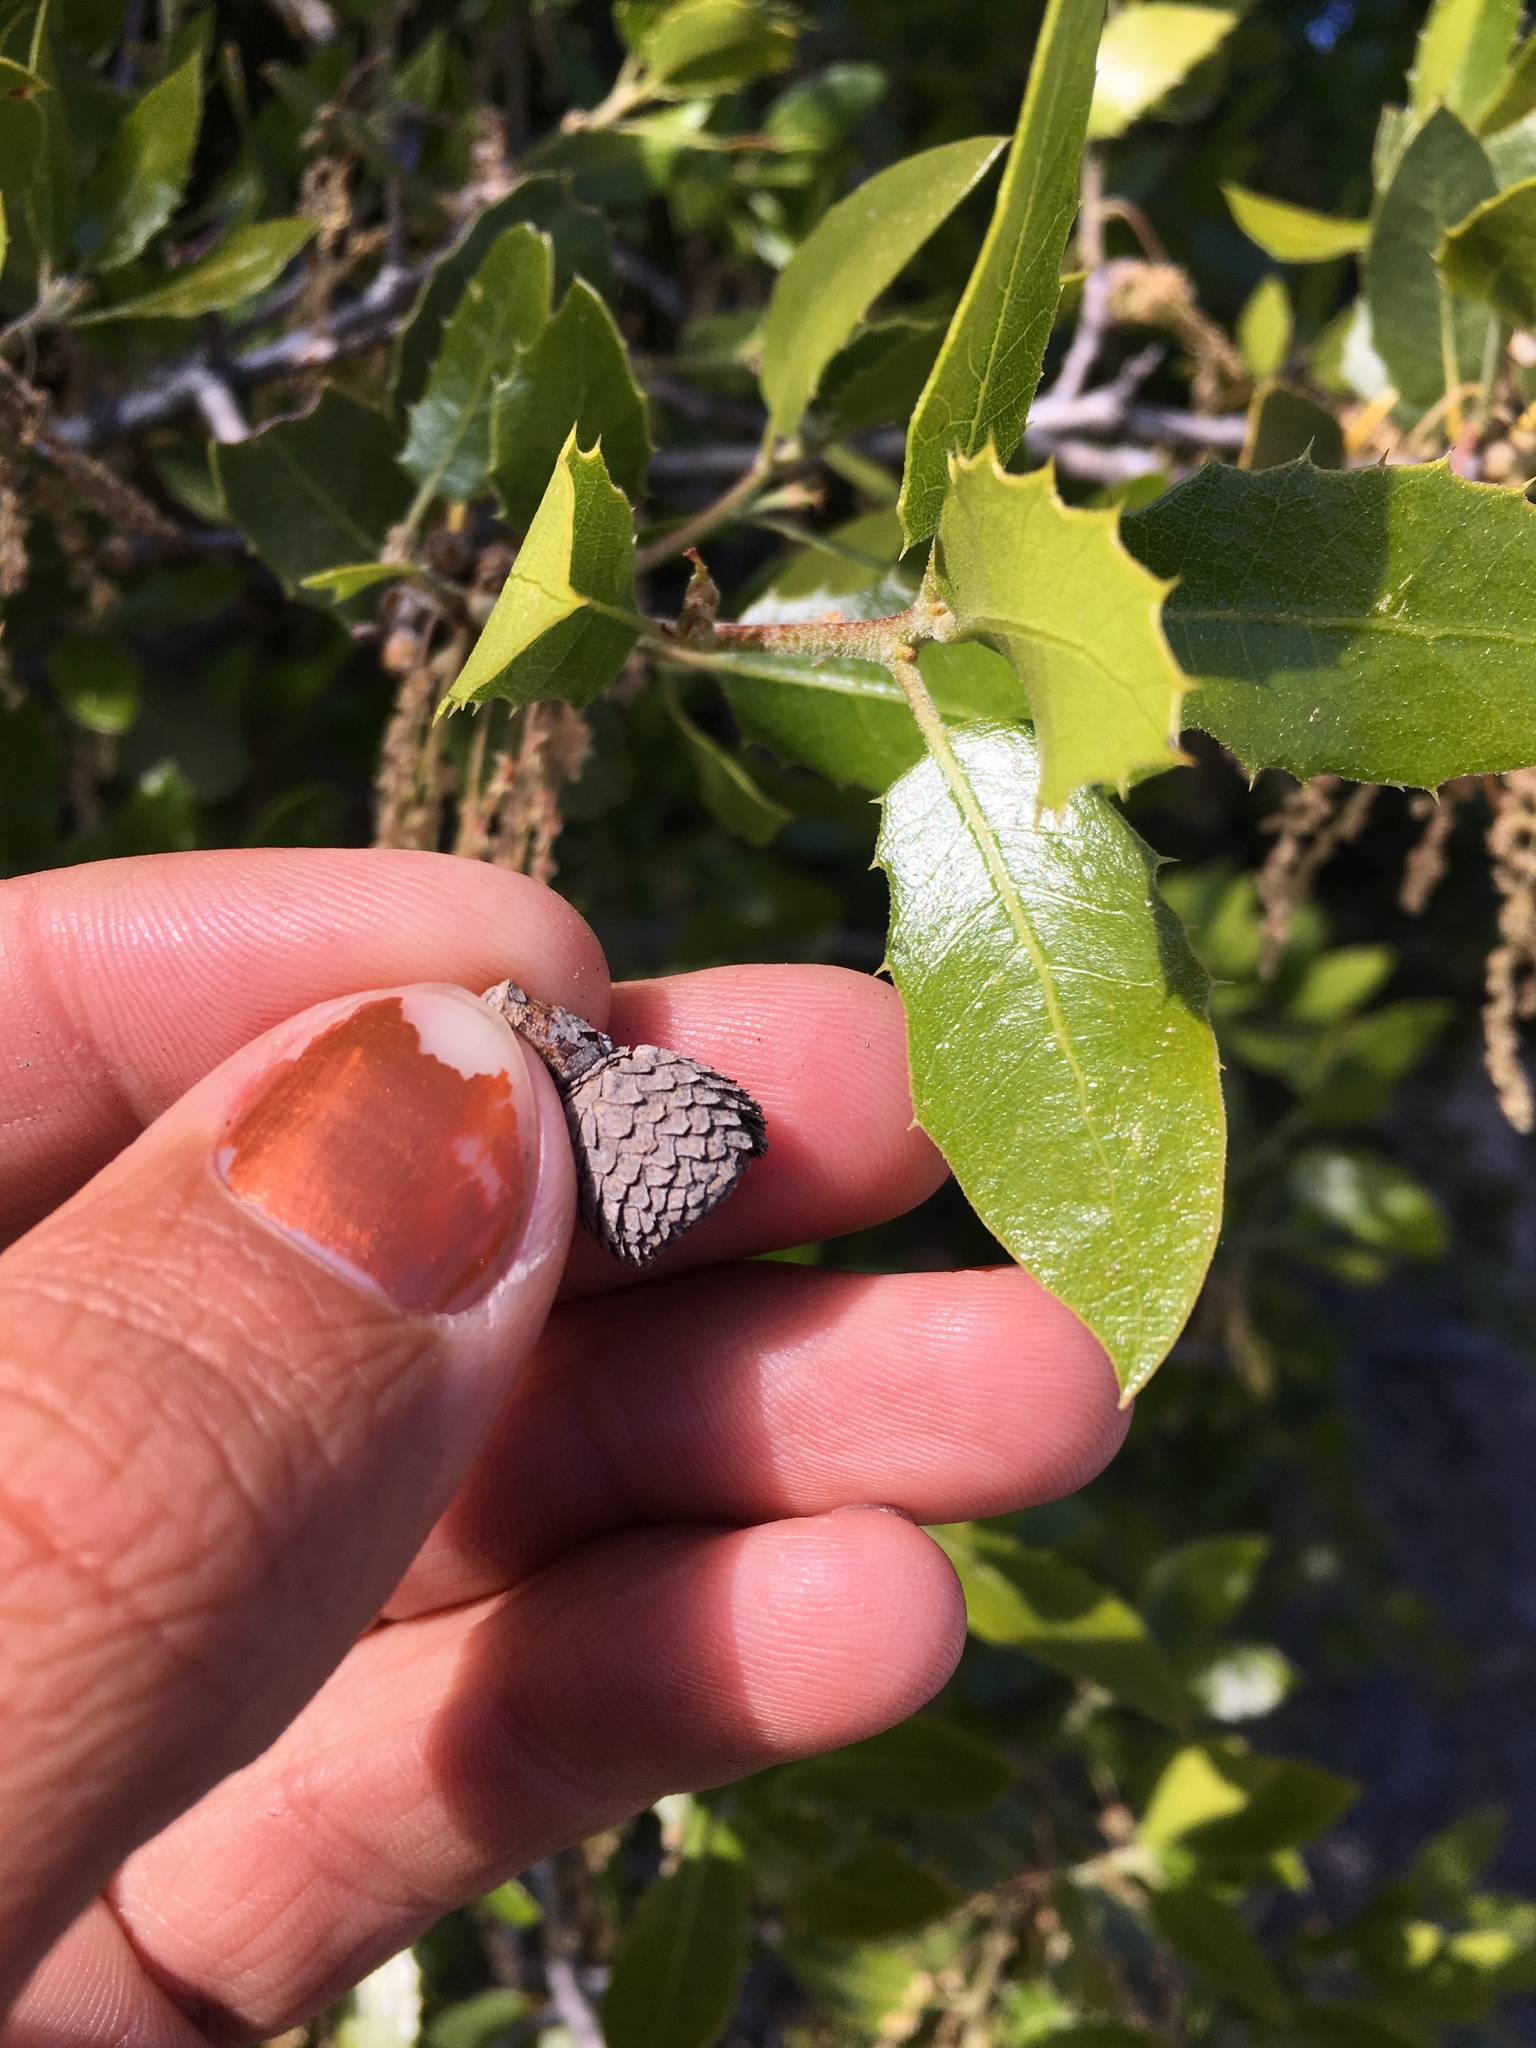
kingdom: Plantae
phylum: Tracheophyta
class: Magnoliopsida
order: Fagales
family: Fagaceae
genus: Quercus
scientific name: Quercus wislizeni
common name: Interior live oak
